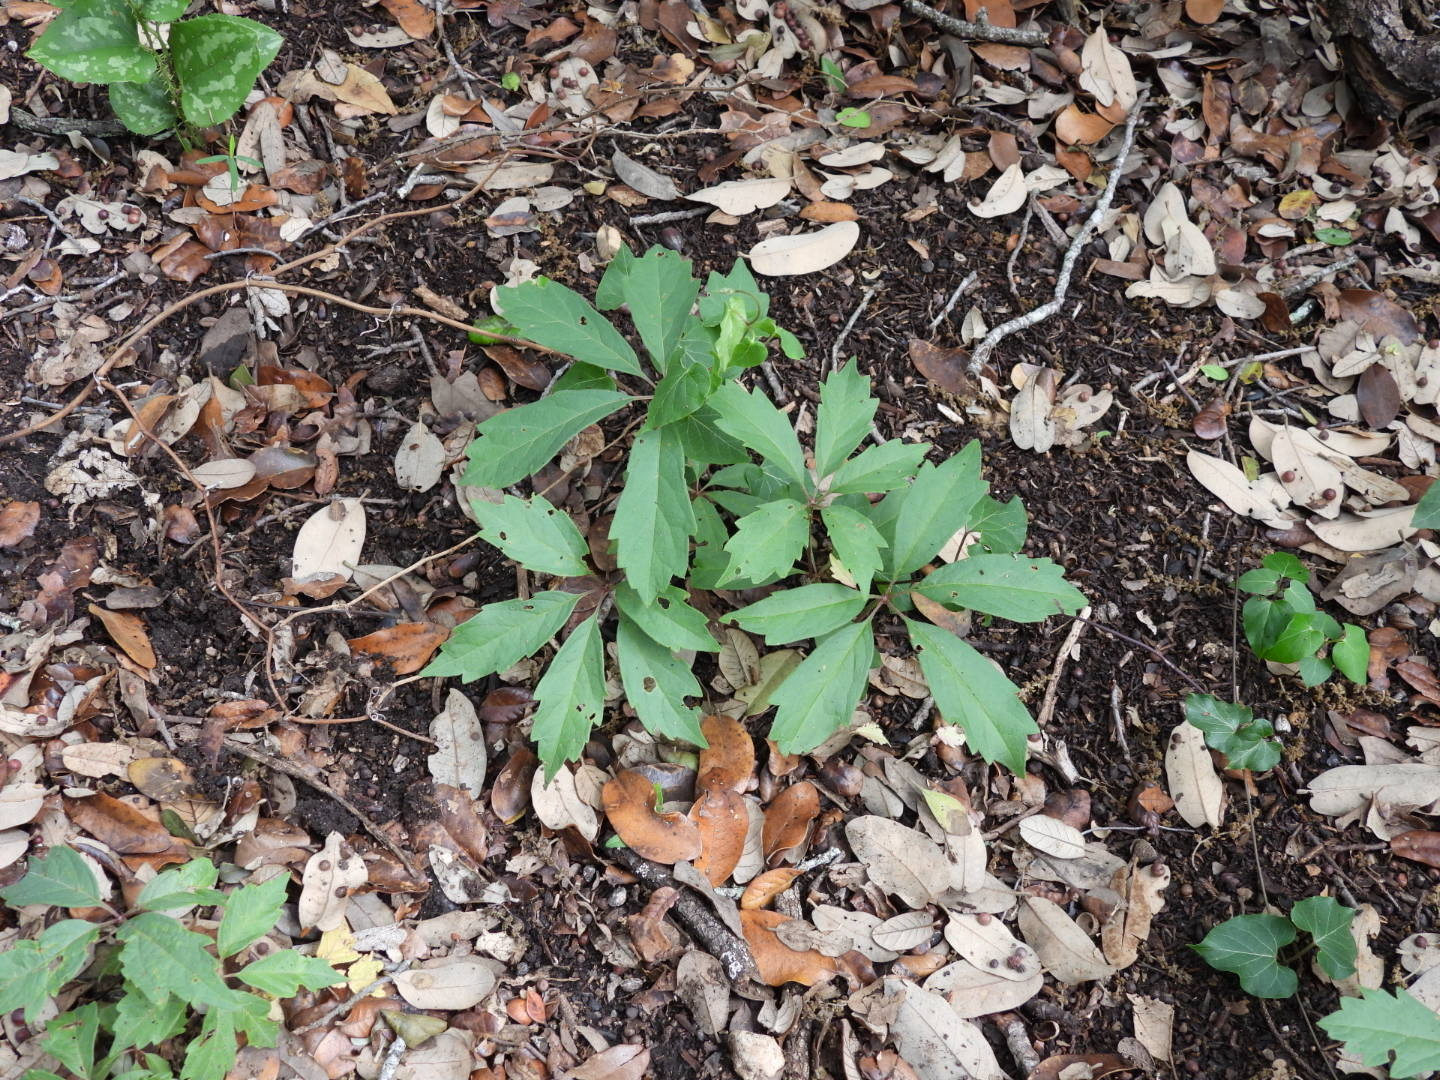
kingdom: Plantae
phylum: Tracheophyta
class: Magnoliopsida
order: Vitales
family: Vitaceae
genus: Parthenocissus
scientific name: Parthenocissus heptaphylla
